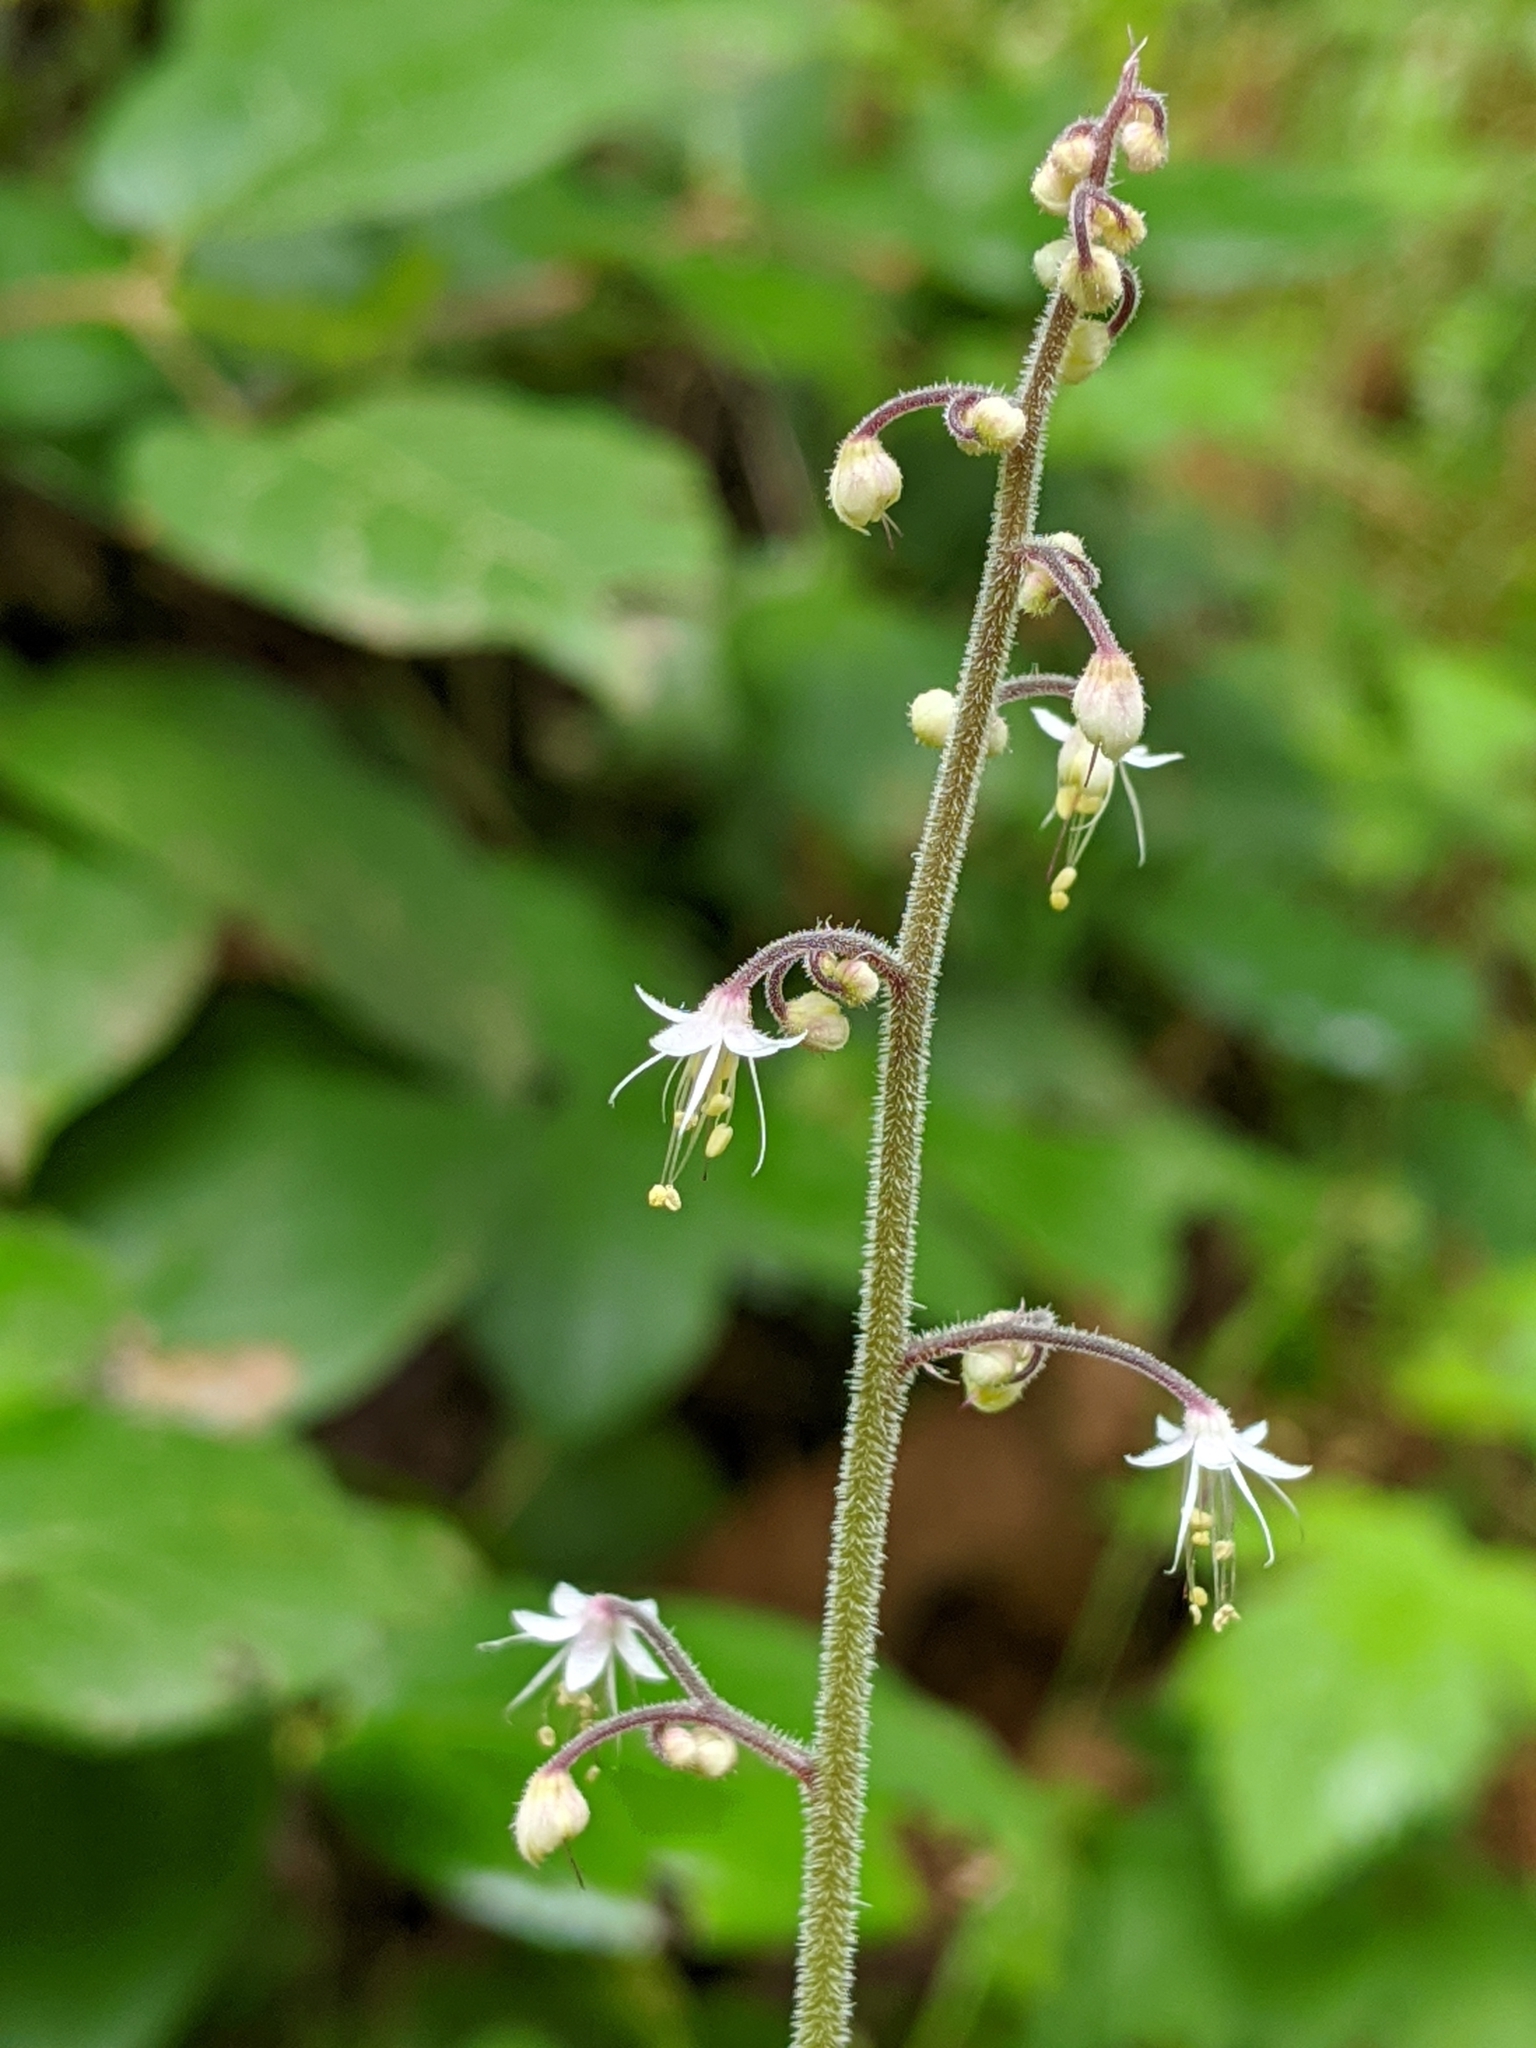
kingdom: Plantae
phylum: Tracheophyta
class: Magnoliopsida
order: Saxifragales
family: Saxifragaceae
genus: Tiarella
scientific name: Tiarella trifoliata
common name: Sugar-scoop
